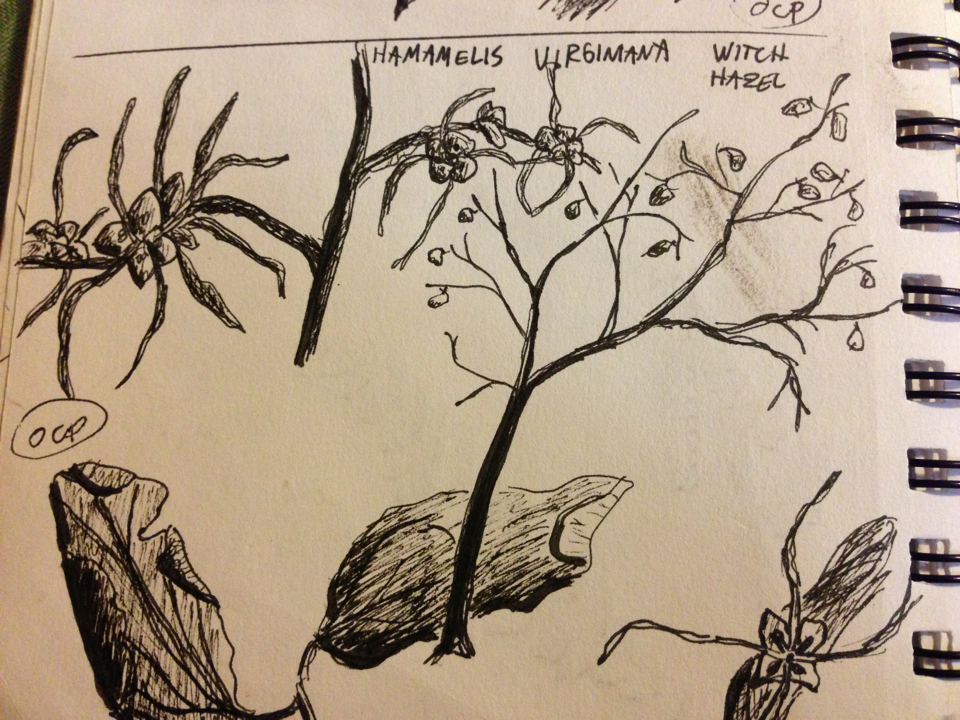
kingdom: Plantae
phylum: Tracheophyta
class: Magnoliopsida
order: Saxifragales
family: Hamamelidaceae
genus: Hamamelis
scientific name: Hamamelis virginiana
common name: Witch-hazel
